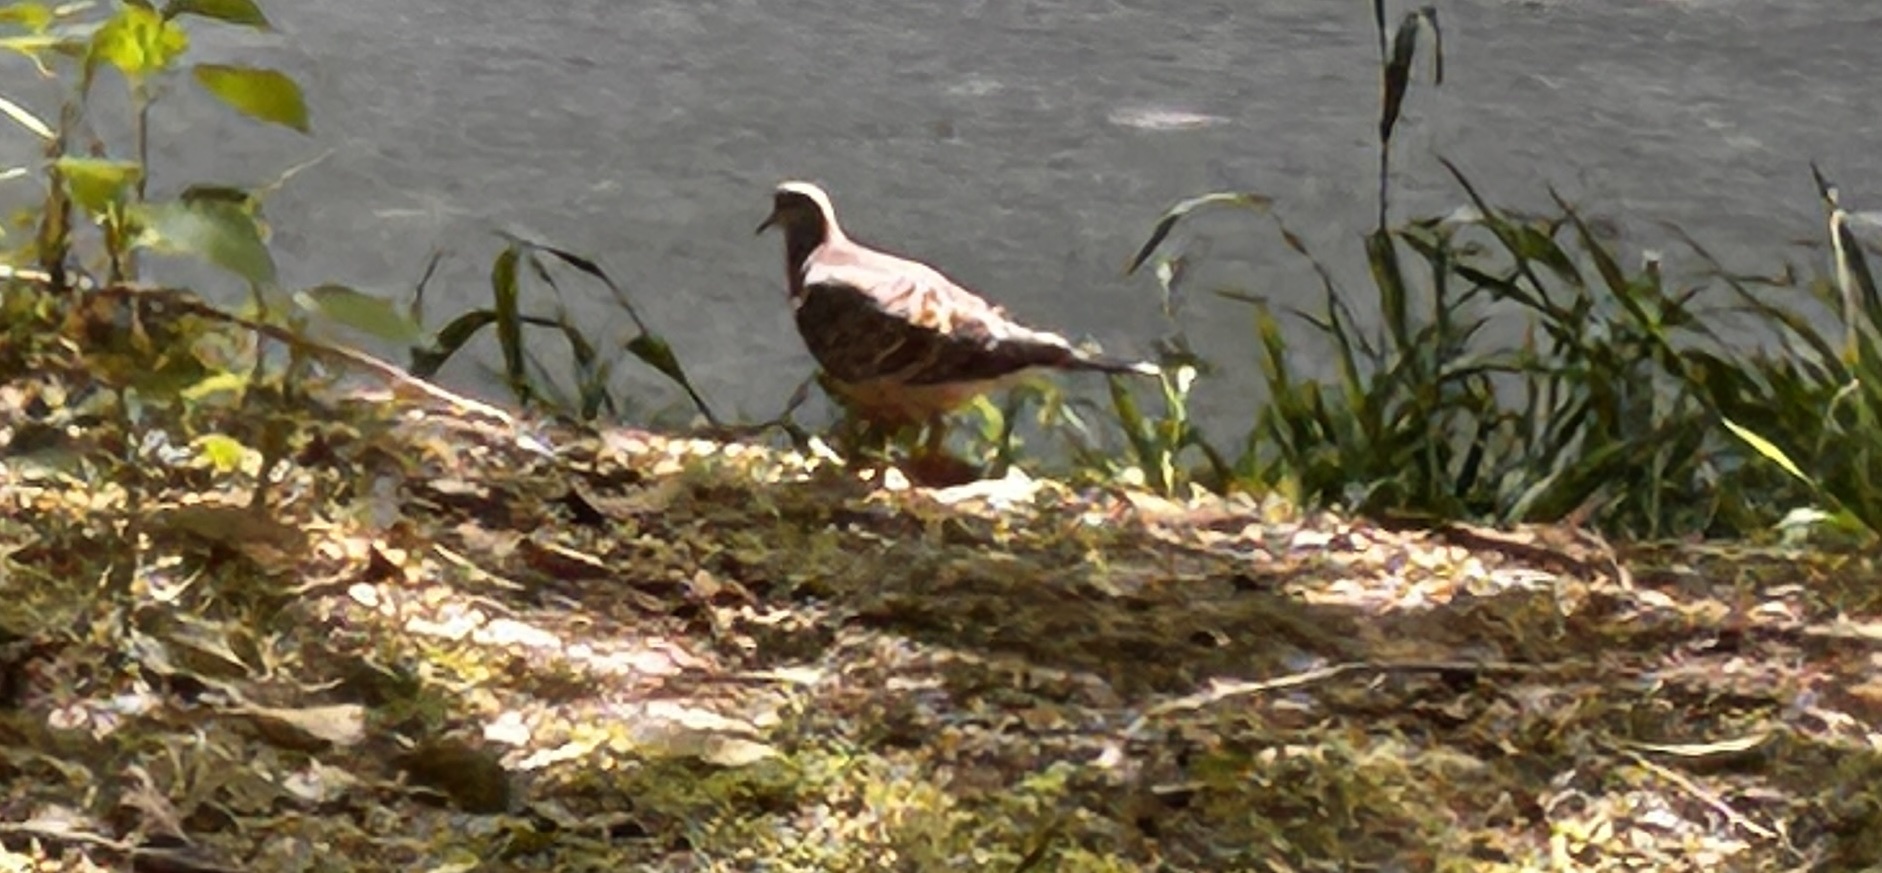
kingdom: Animalia
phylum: Chordata
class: Aves
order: Columbiformes
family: Columbidae
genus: Streptopelia
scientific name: Streptopelia orientalis
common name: Oriental turtle dove
